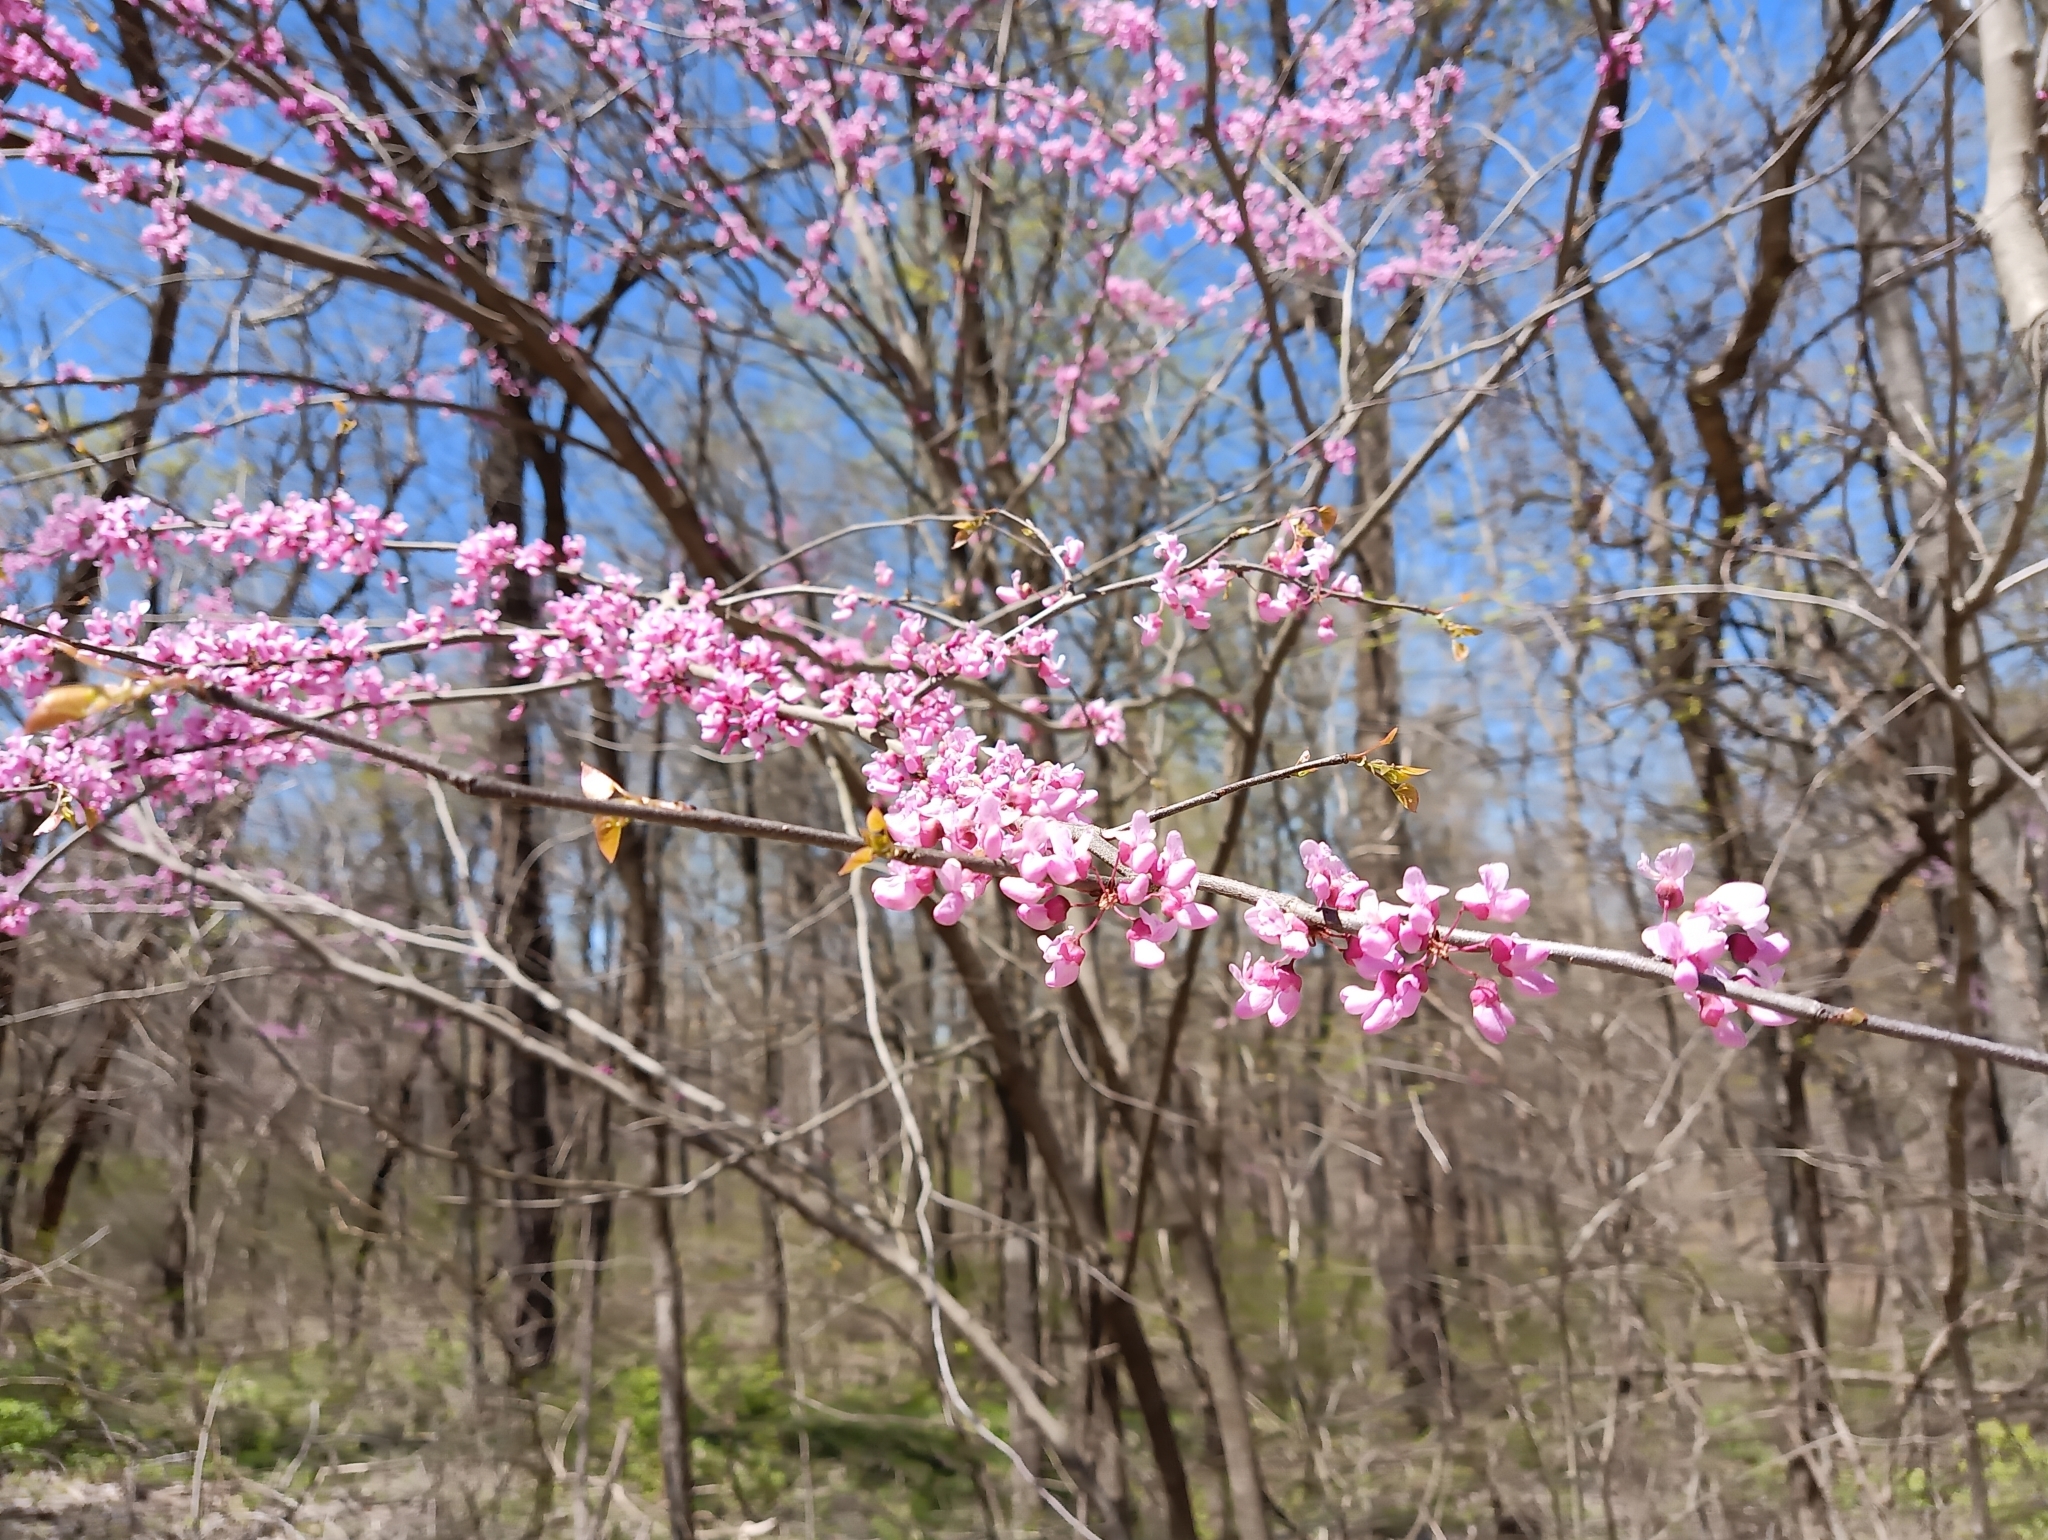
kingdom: Plantae
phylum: Tracheophyta
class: Magnoliopsida
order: Fabales
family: Fabaceae
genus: Cercis
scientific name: Cercis canadensis
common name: Eastern redbud
